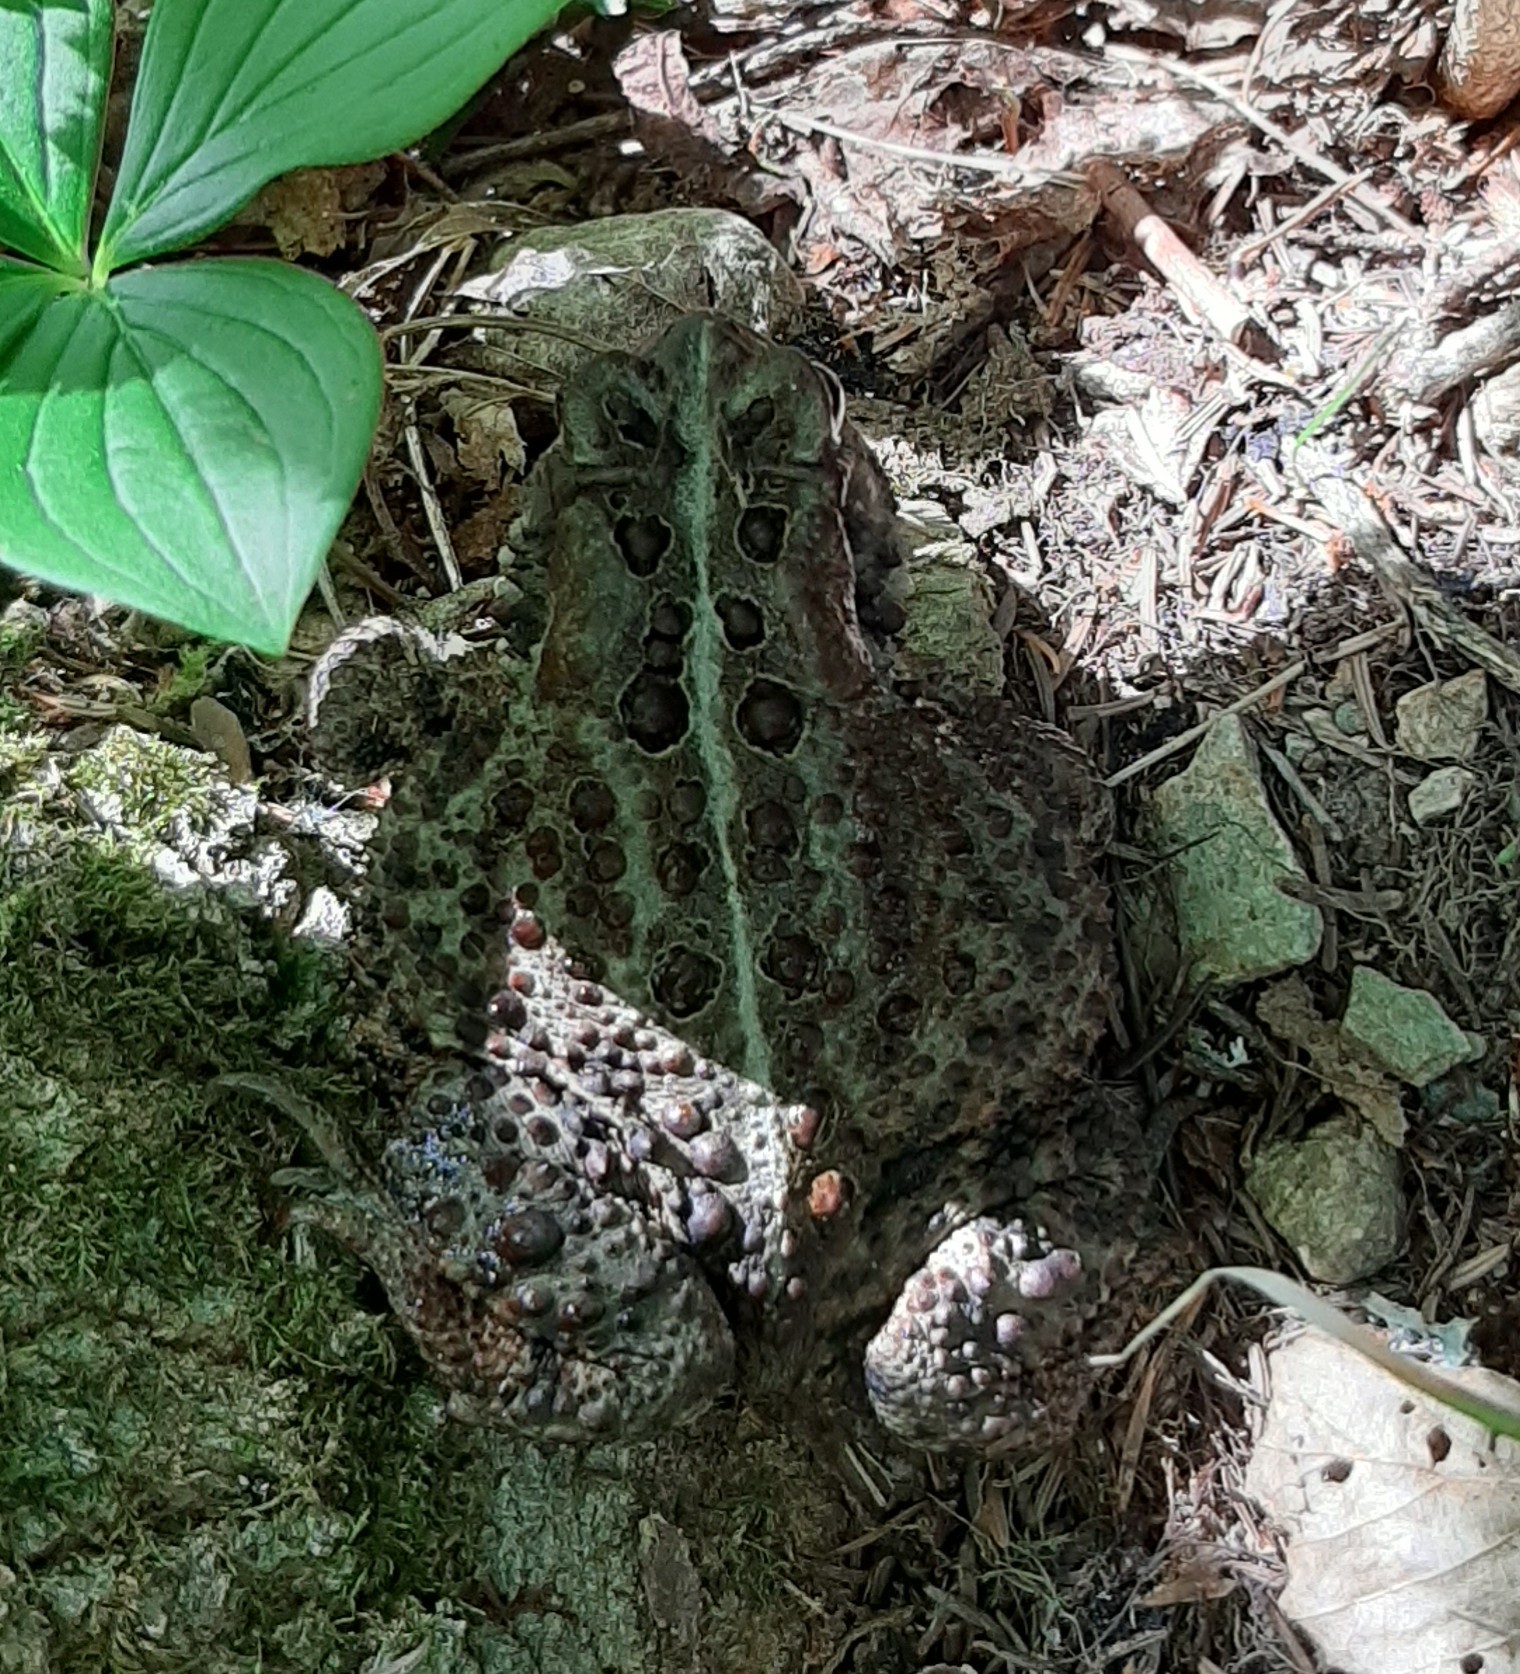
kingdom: Animalia
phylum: Chordata
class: Amphibia
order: Anura
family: Bufonidae
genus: Anaxyrus
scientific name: Anaxyrus americanus
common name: American toad
